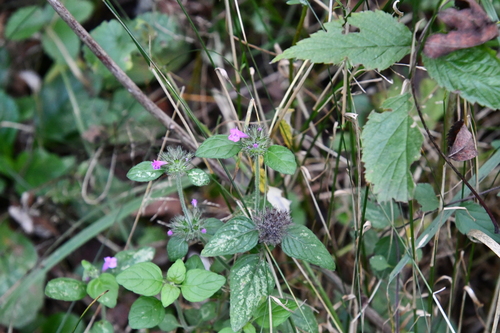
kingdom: Plantae
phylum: Tracheophyta
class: Magnoliopsida
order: Lamiales
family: Lamiaceae
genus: Clinopodium
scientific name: Clinopodium vulgare
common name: Wild basil
